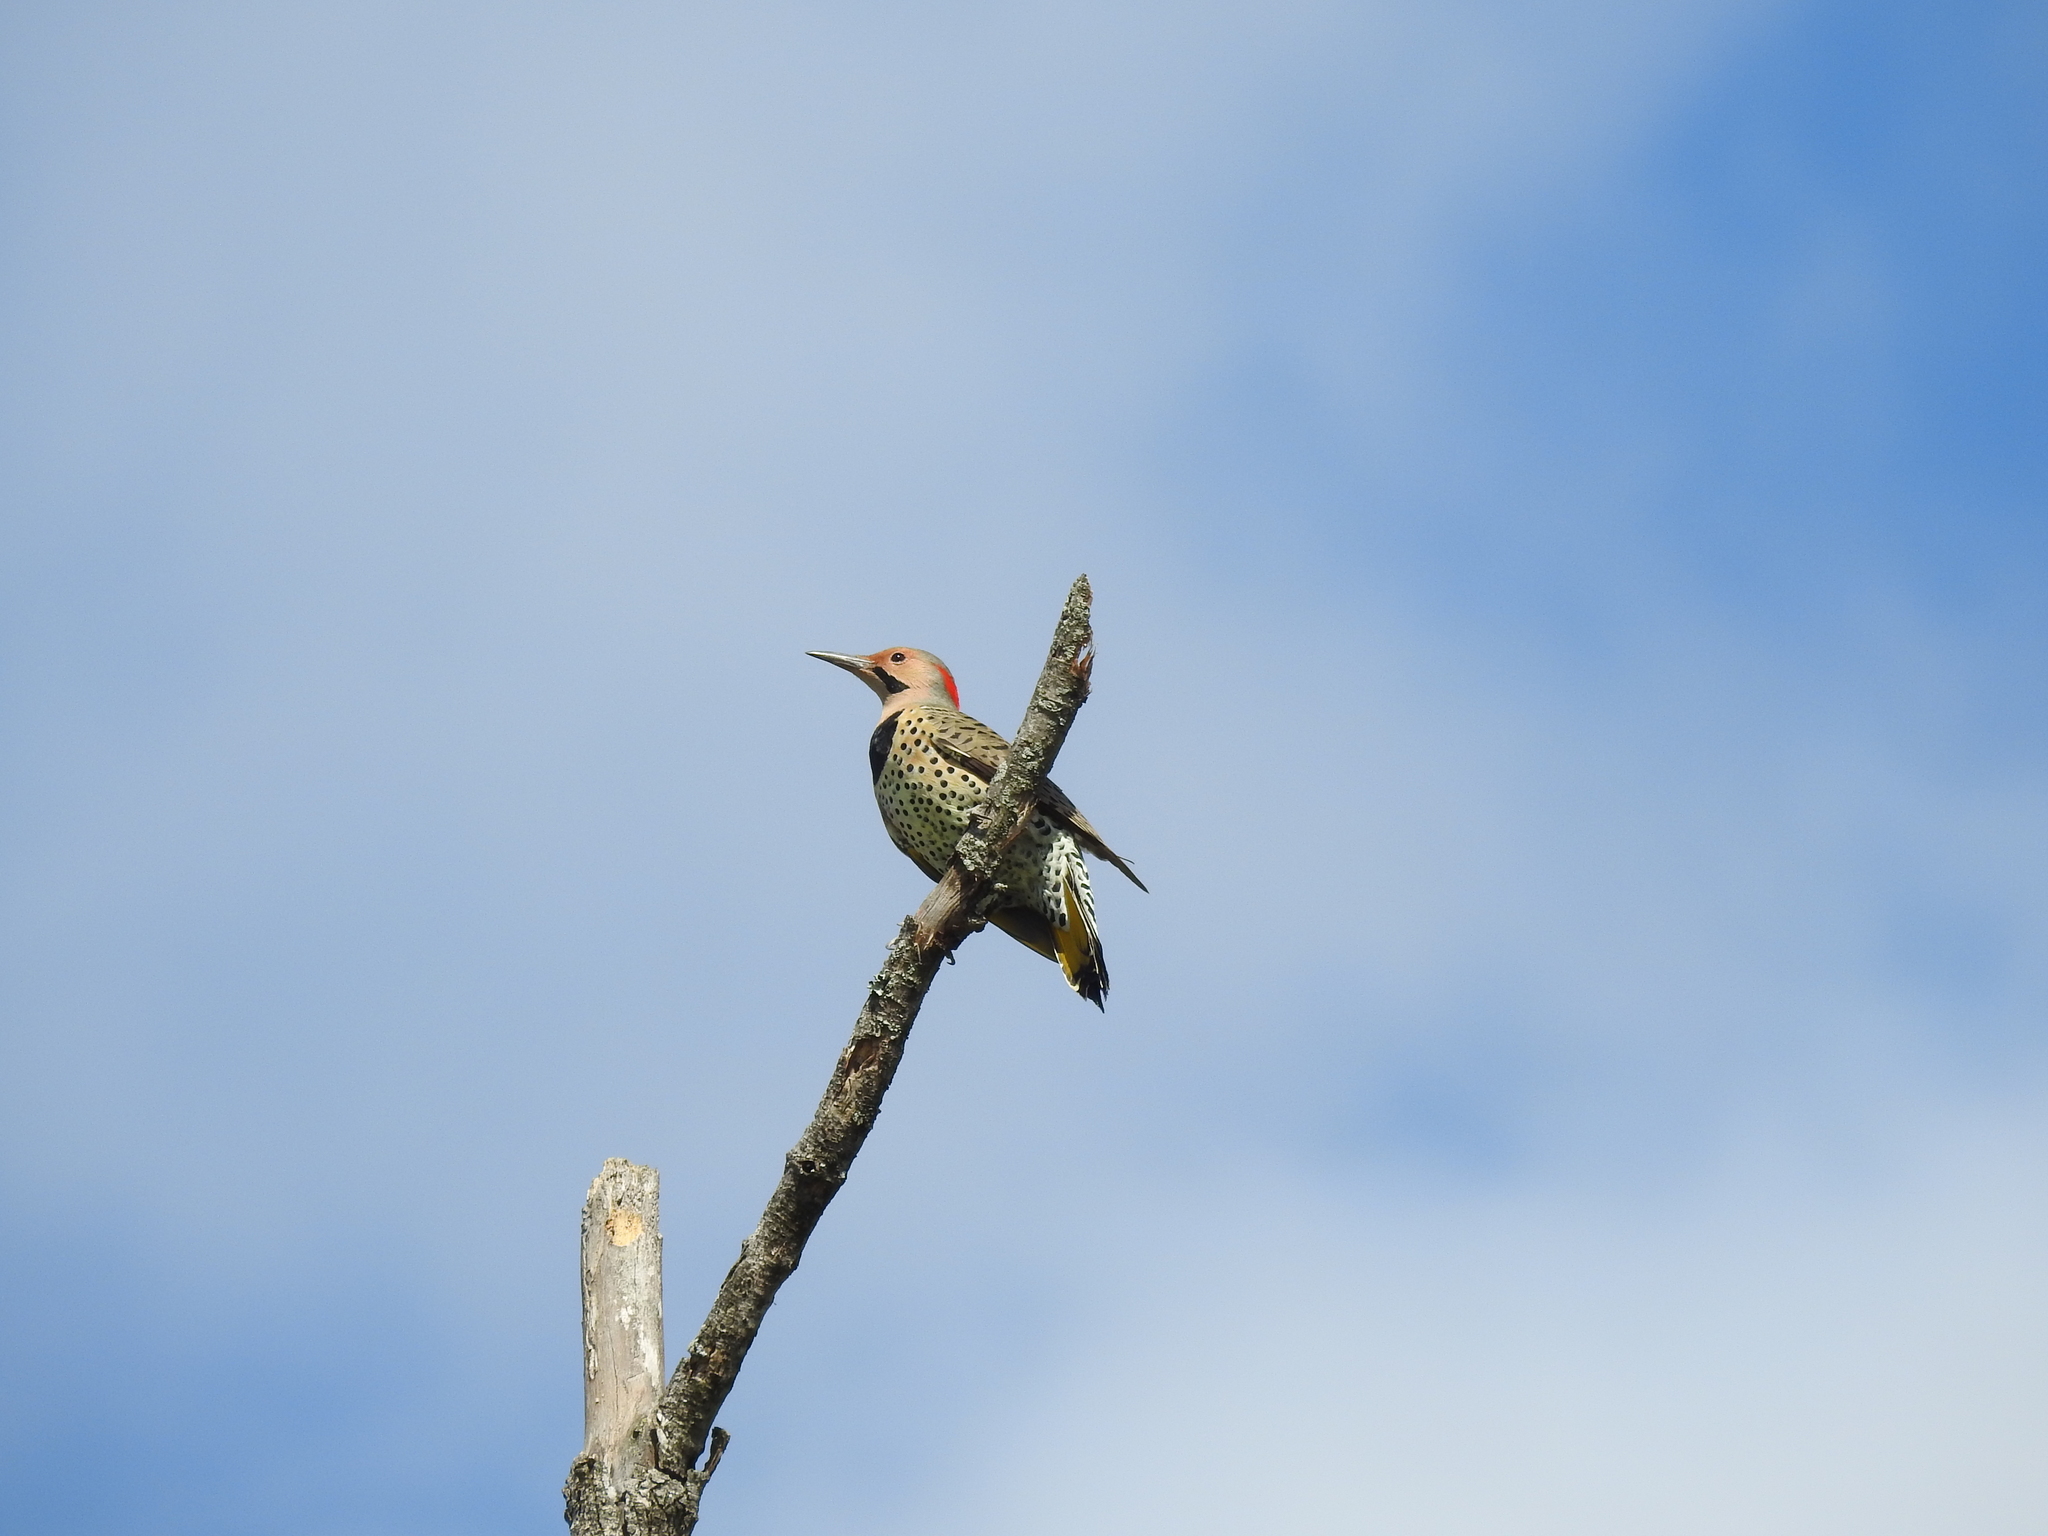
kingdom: Animalia
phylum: Chordata
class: Aves
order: Piciformes
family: Picidae
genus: Colaptes
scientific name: Colaptes auratus
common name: Northern flicker
